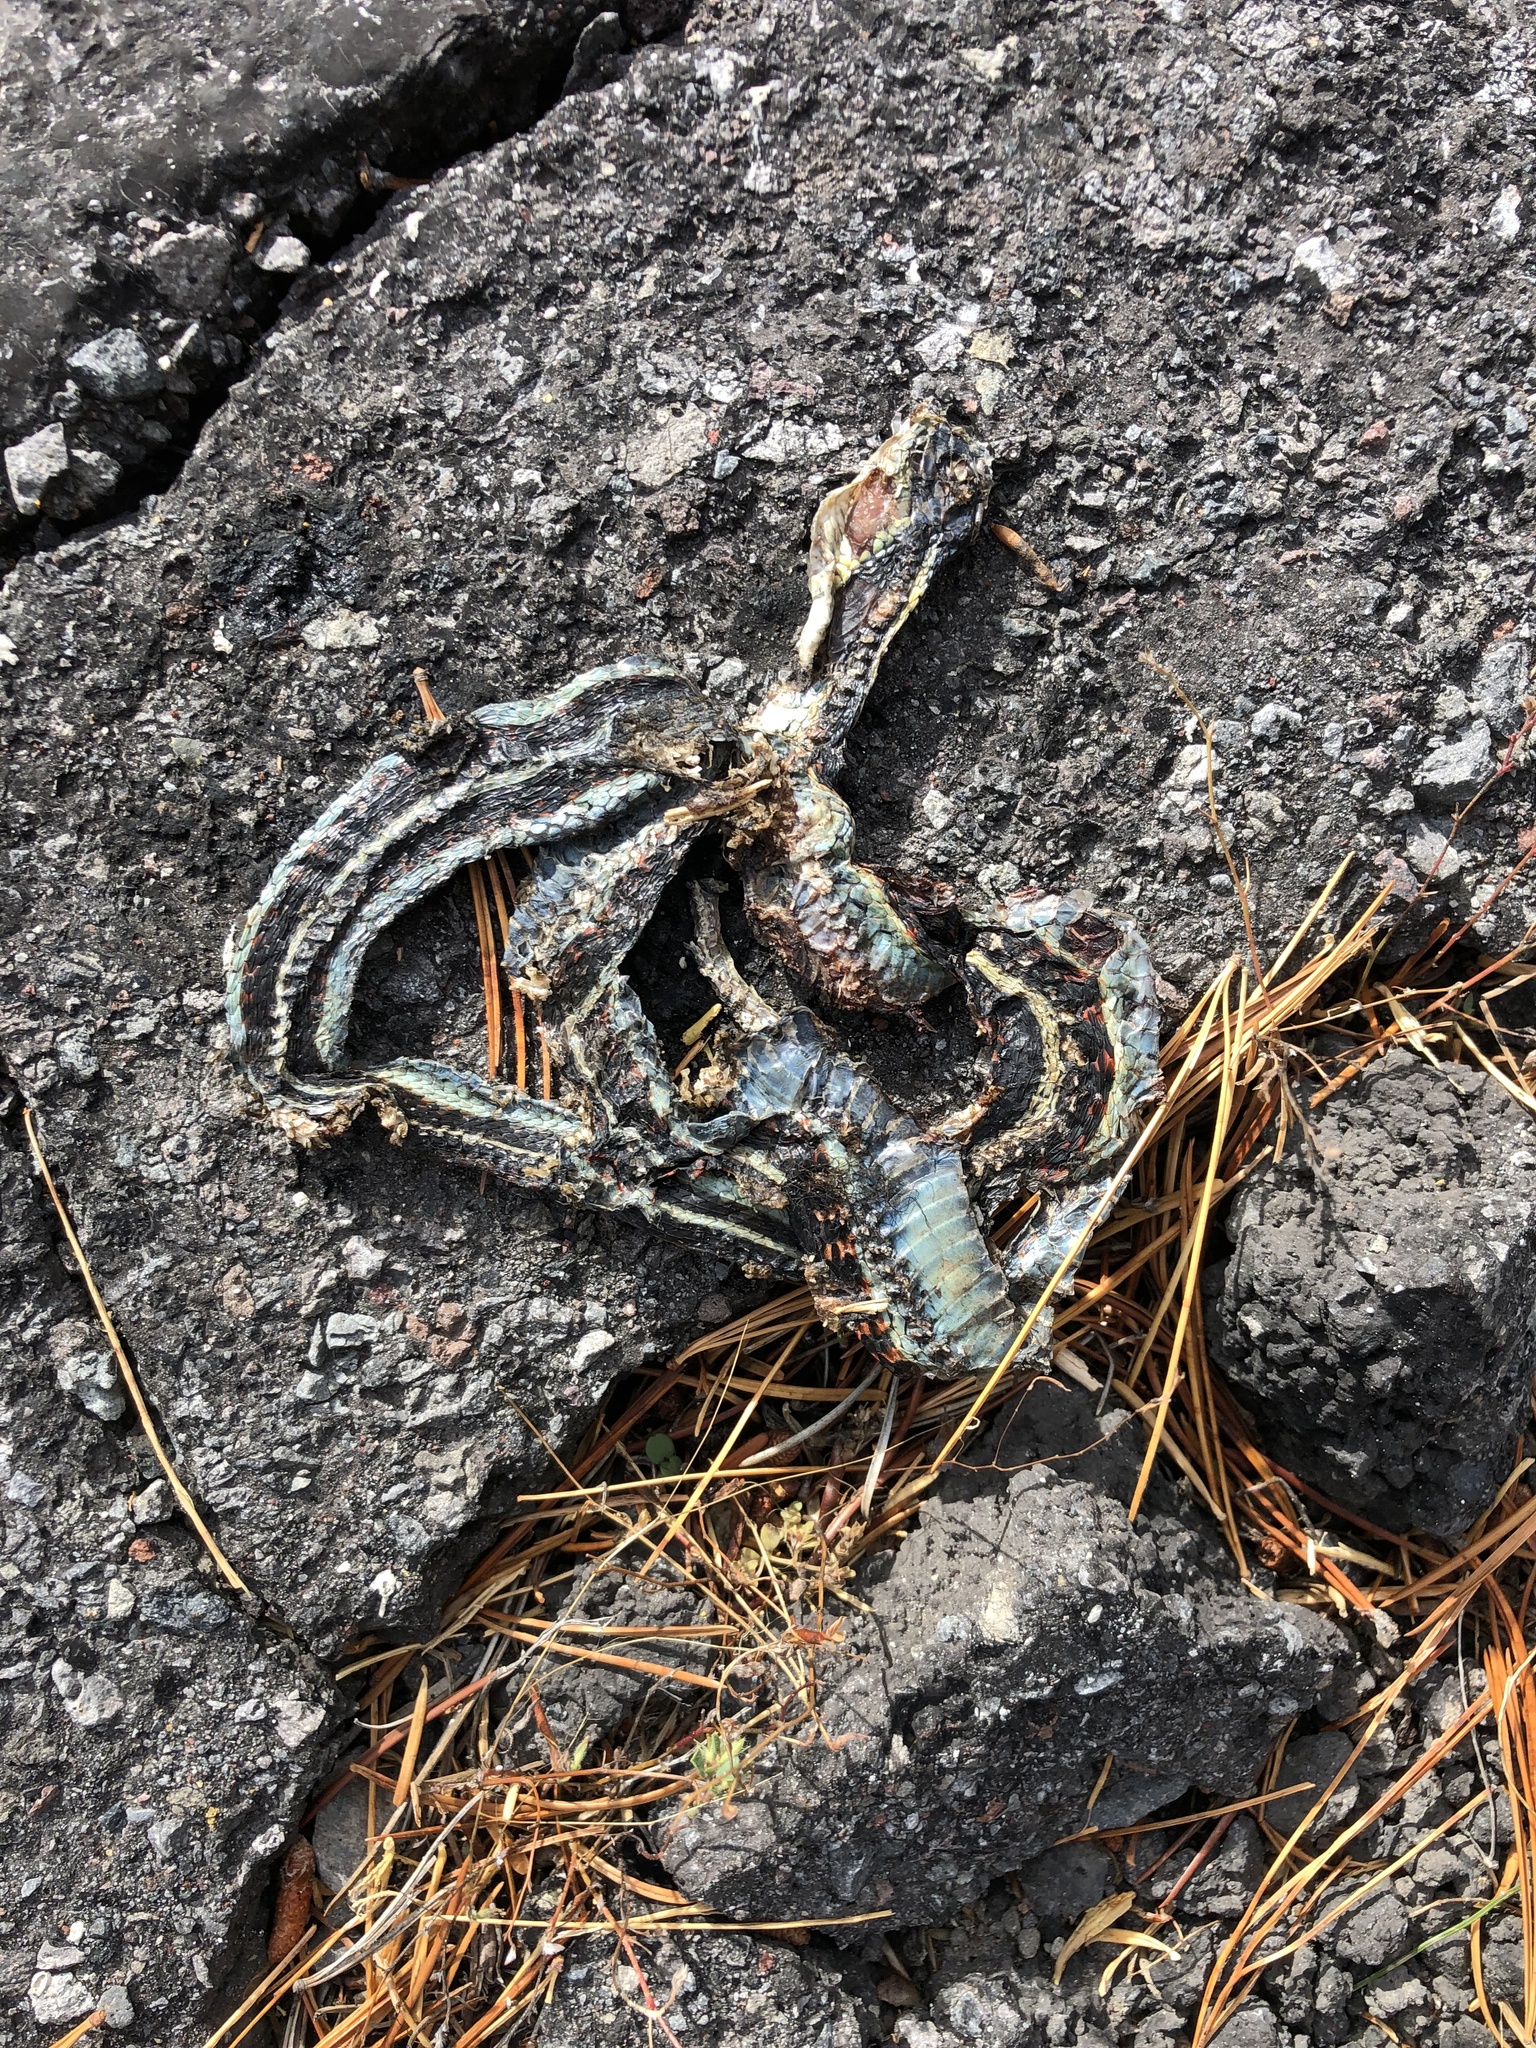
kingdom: Animalia
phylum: Chordata
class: Squamata
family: Colubridae
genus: Thamnophis
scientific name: Thamnophis sirtalis
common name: Common garter snake
